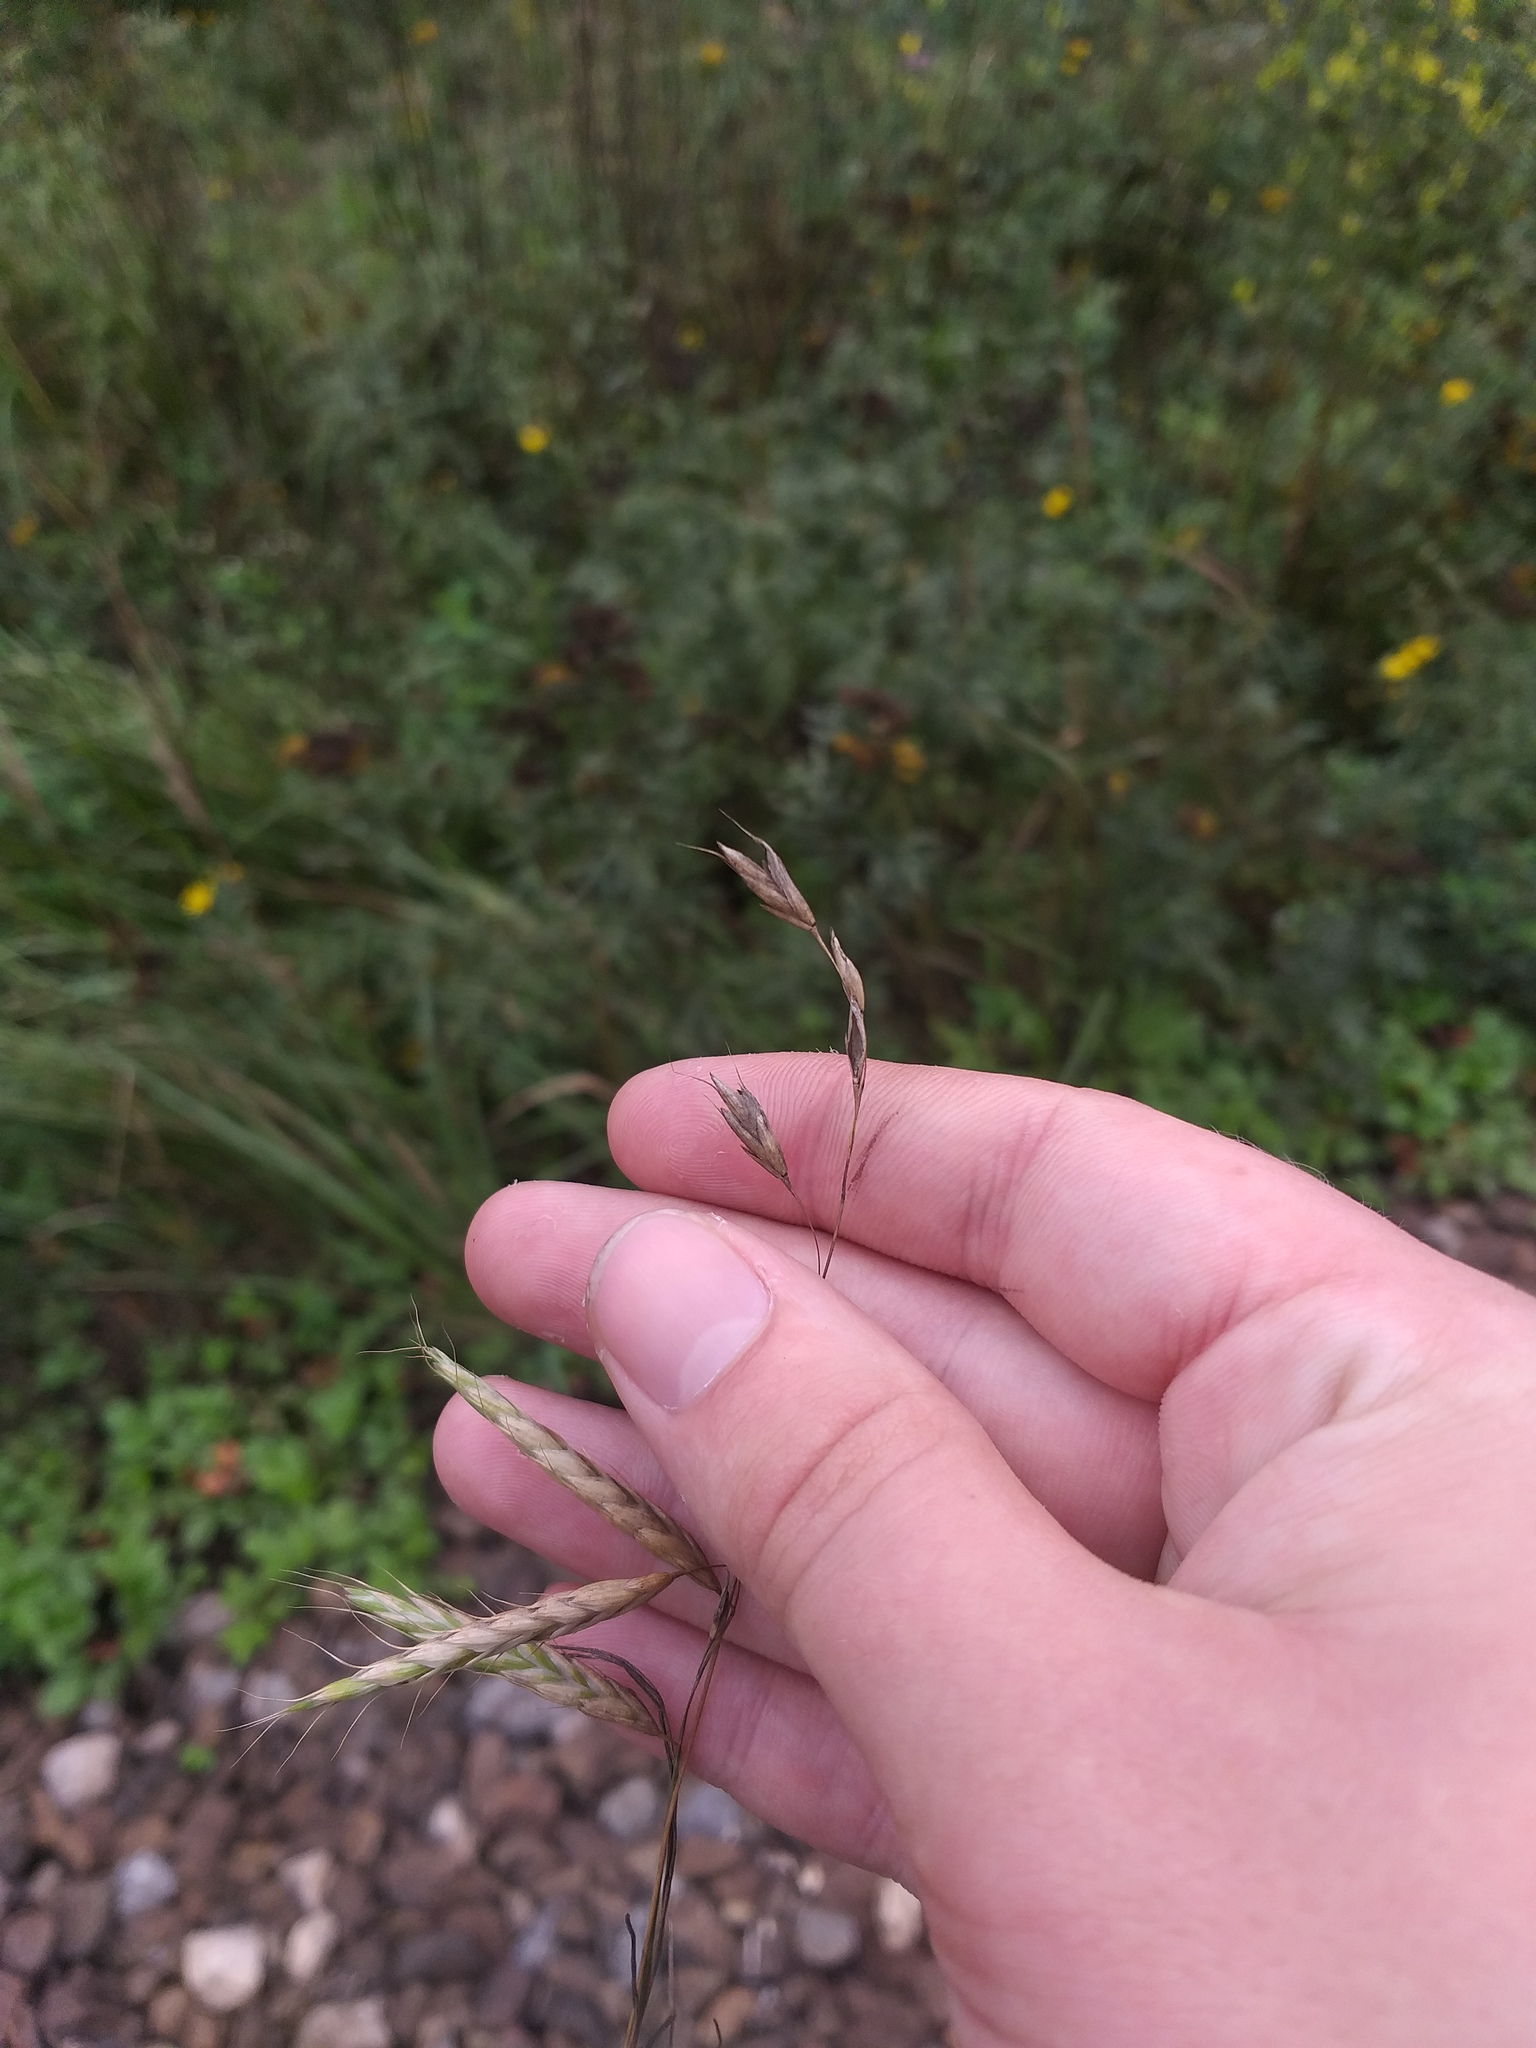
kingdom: Plantae
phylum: Tracheophyta
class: Liliopsida
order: Poales
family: Poaceae
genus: Bromus
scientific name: Bromus squarrosus
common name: Corn brome
